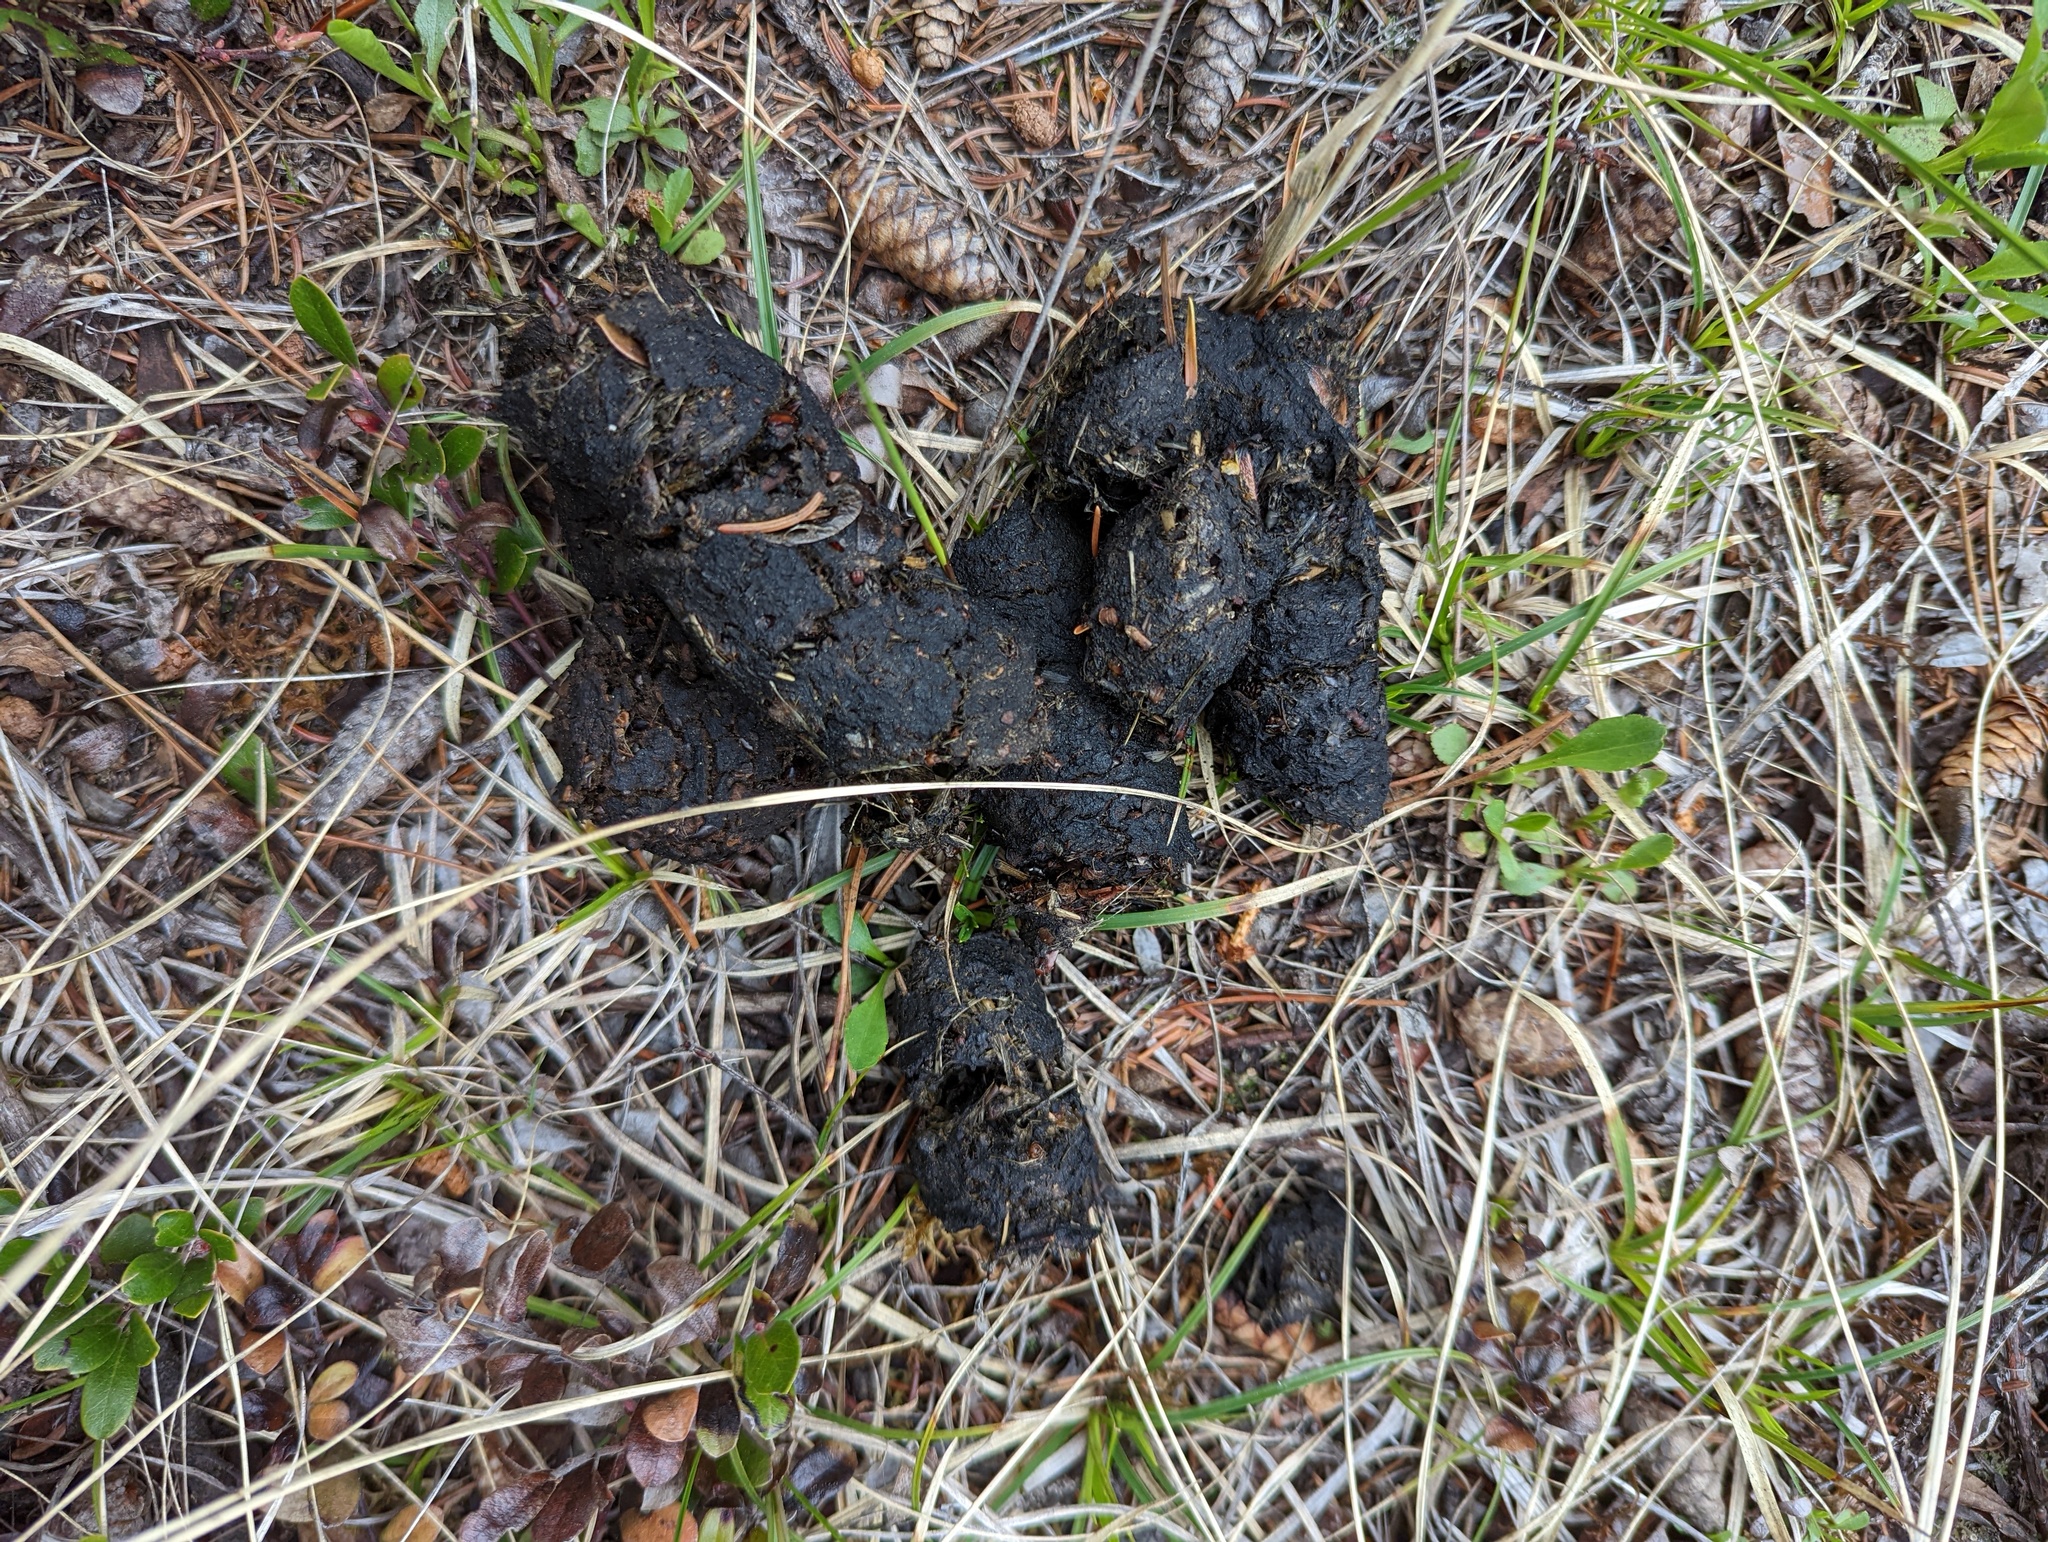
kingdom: Animalia
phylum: Chordata
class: Mammalia
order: Carnivora
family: Ursidae
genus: Ursus
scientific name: Ursus americanus
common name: American black bear
